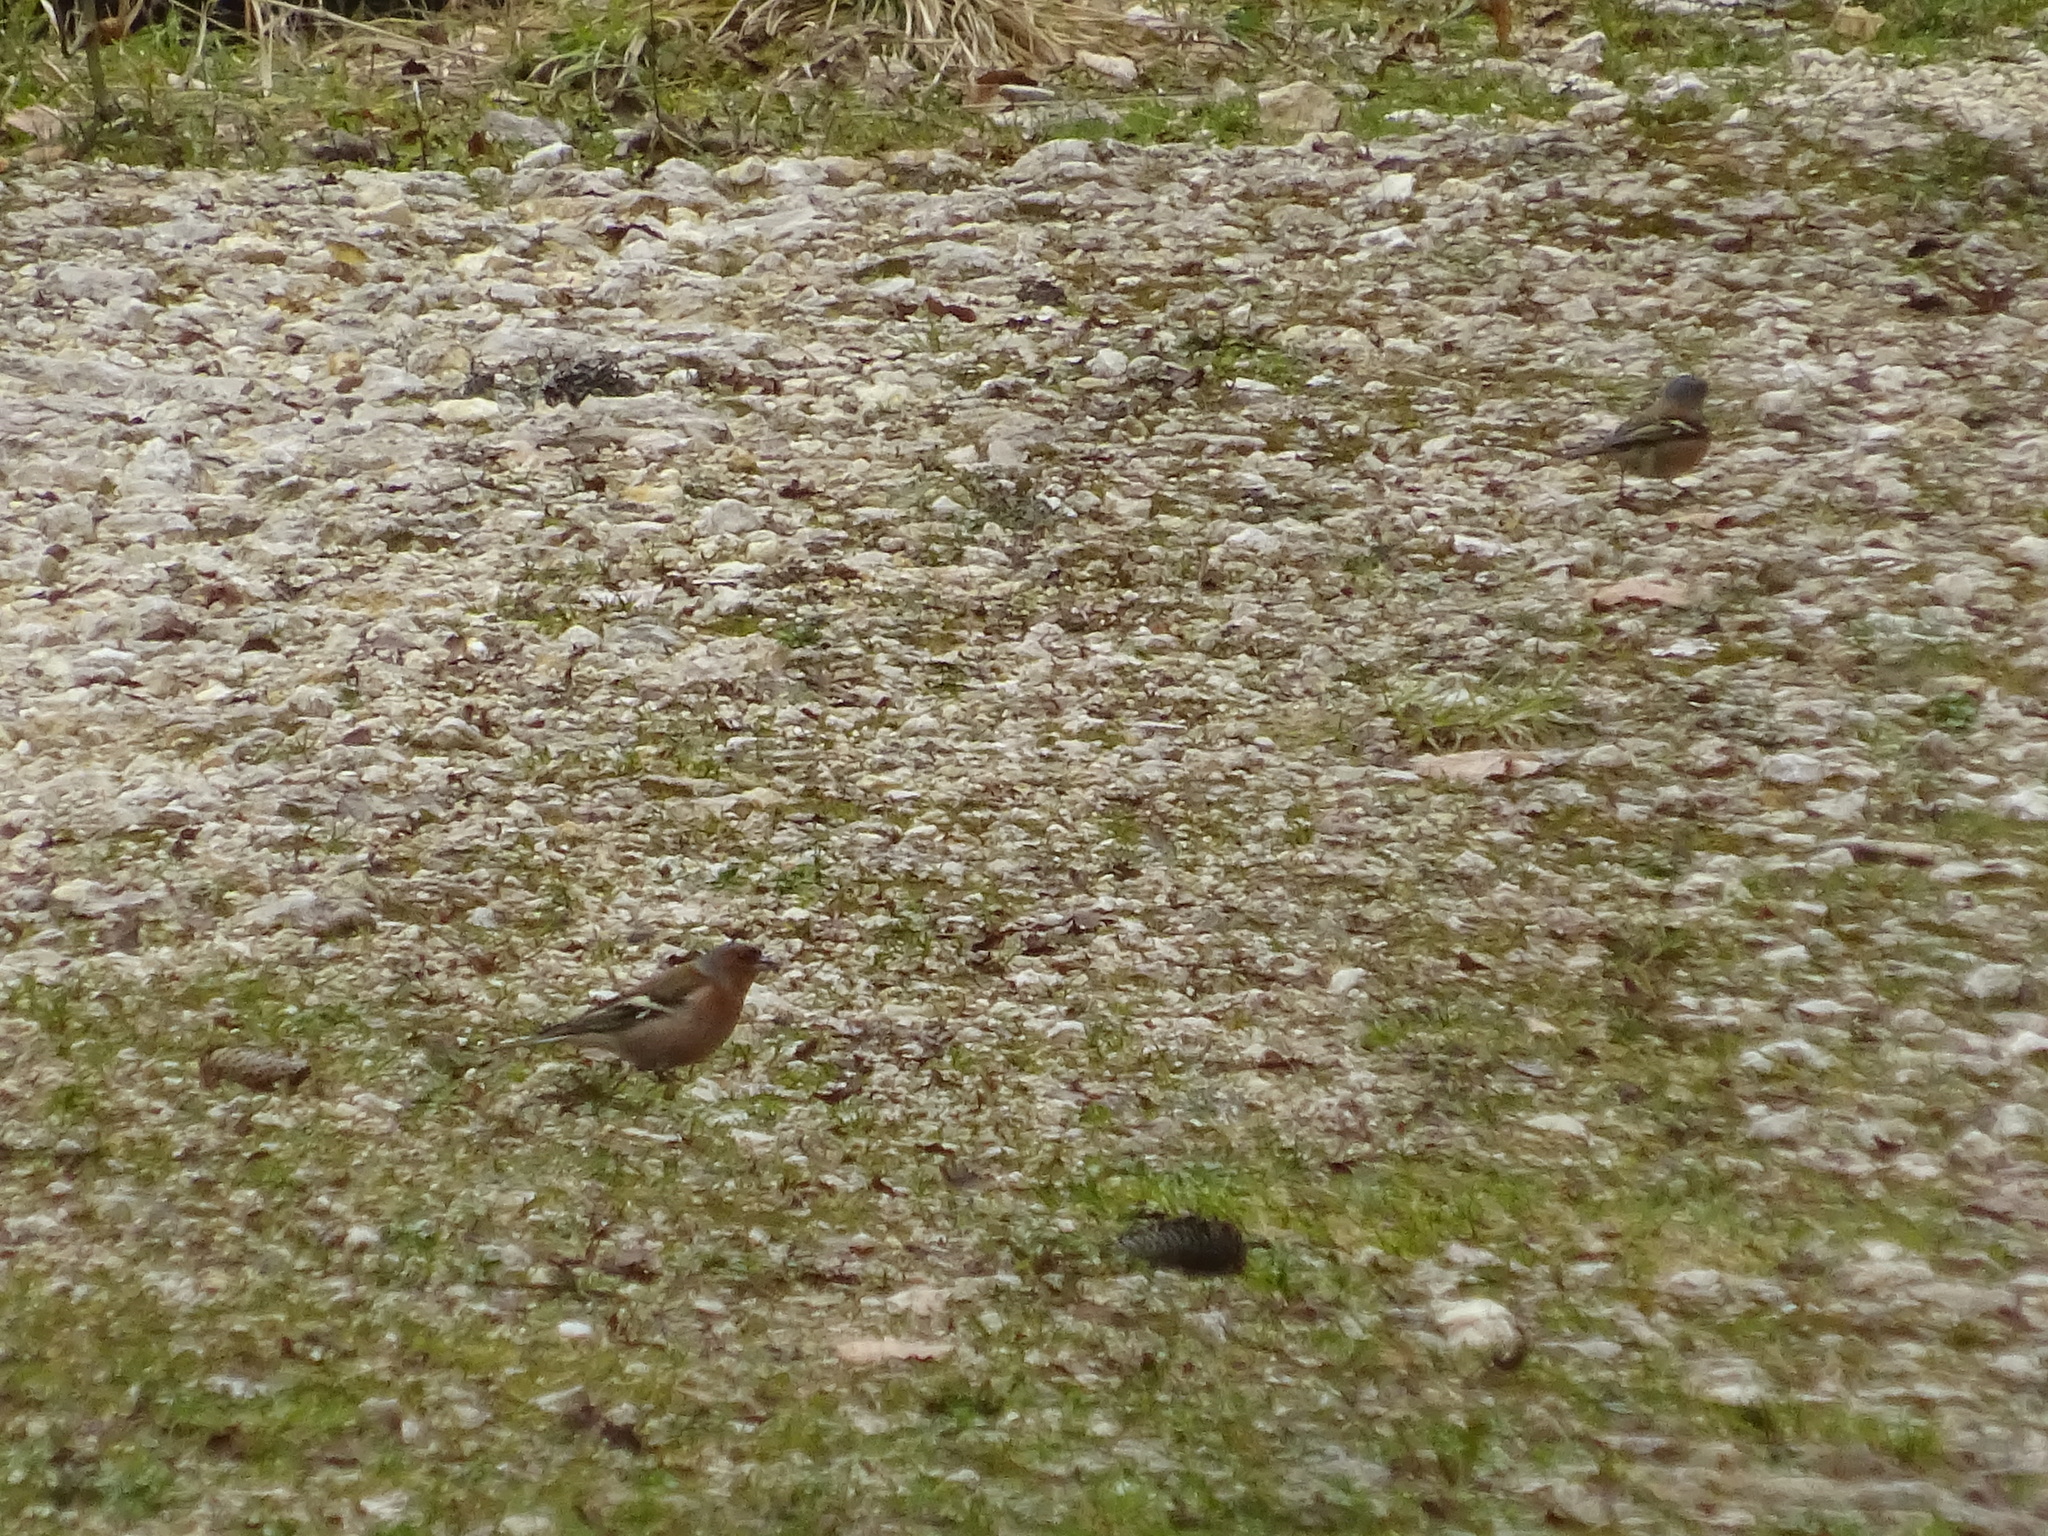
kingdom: Animalia
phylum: Chordata
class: Aves
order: Passeriformes
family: Fringillidae
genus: Fringilla
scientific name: Fringilla coelebs
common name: Common chaffinch
